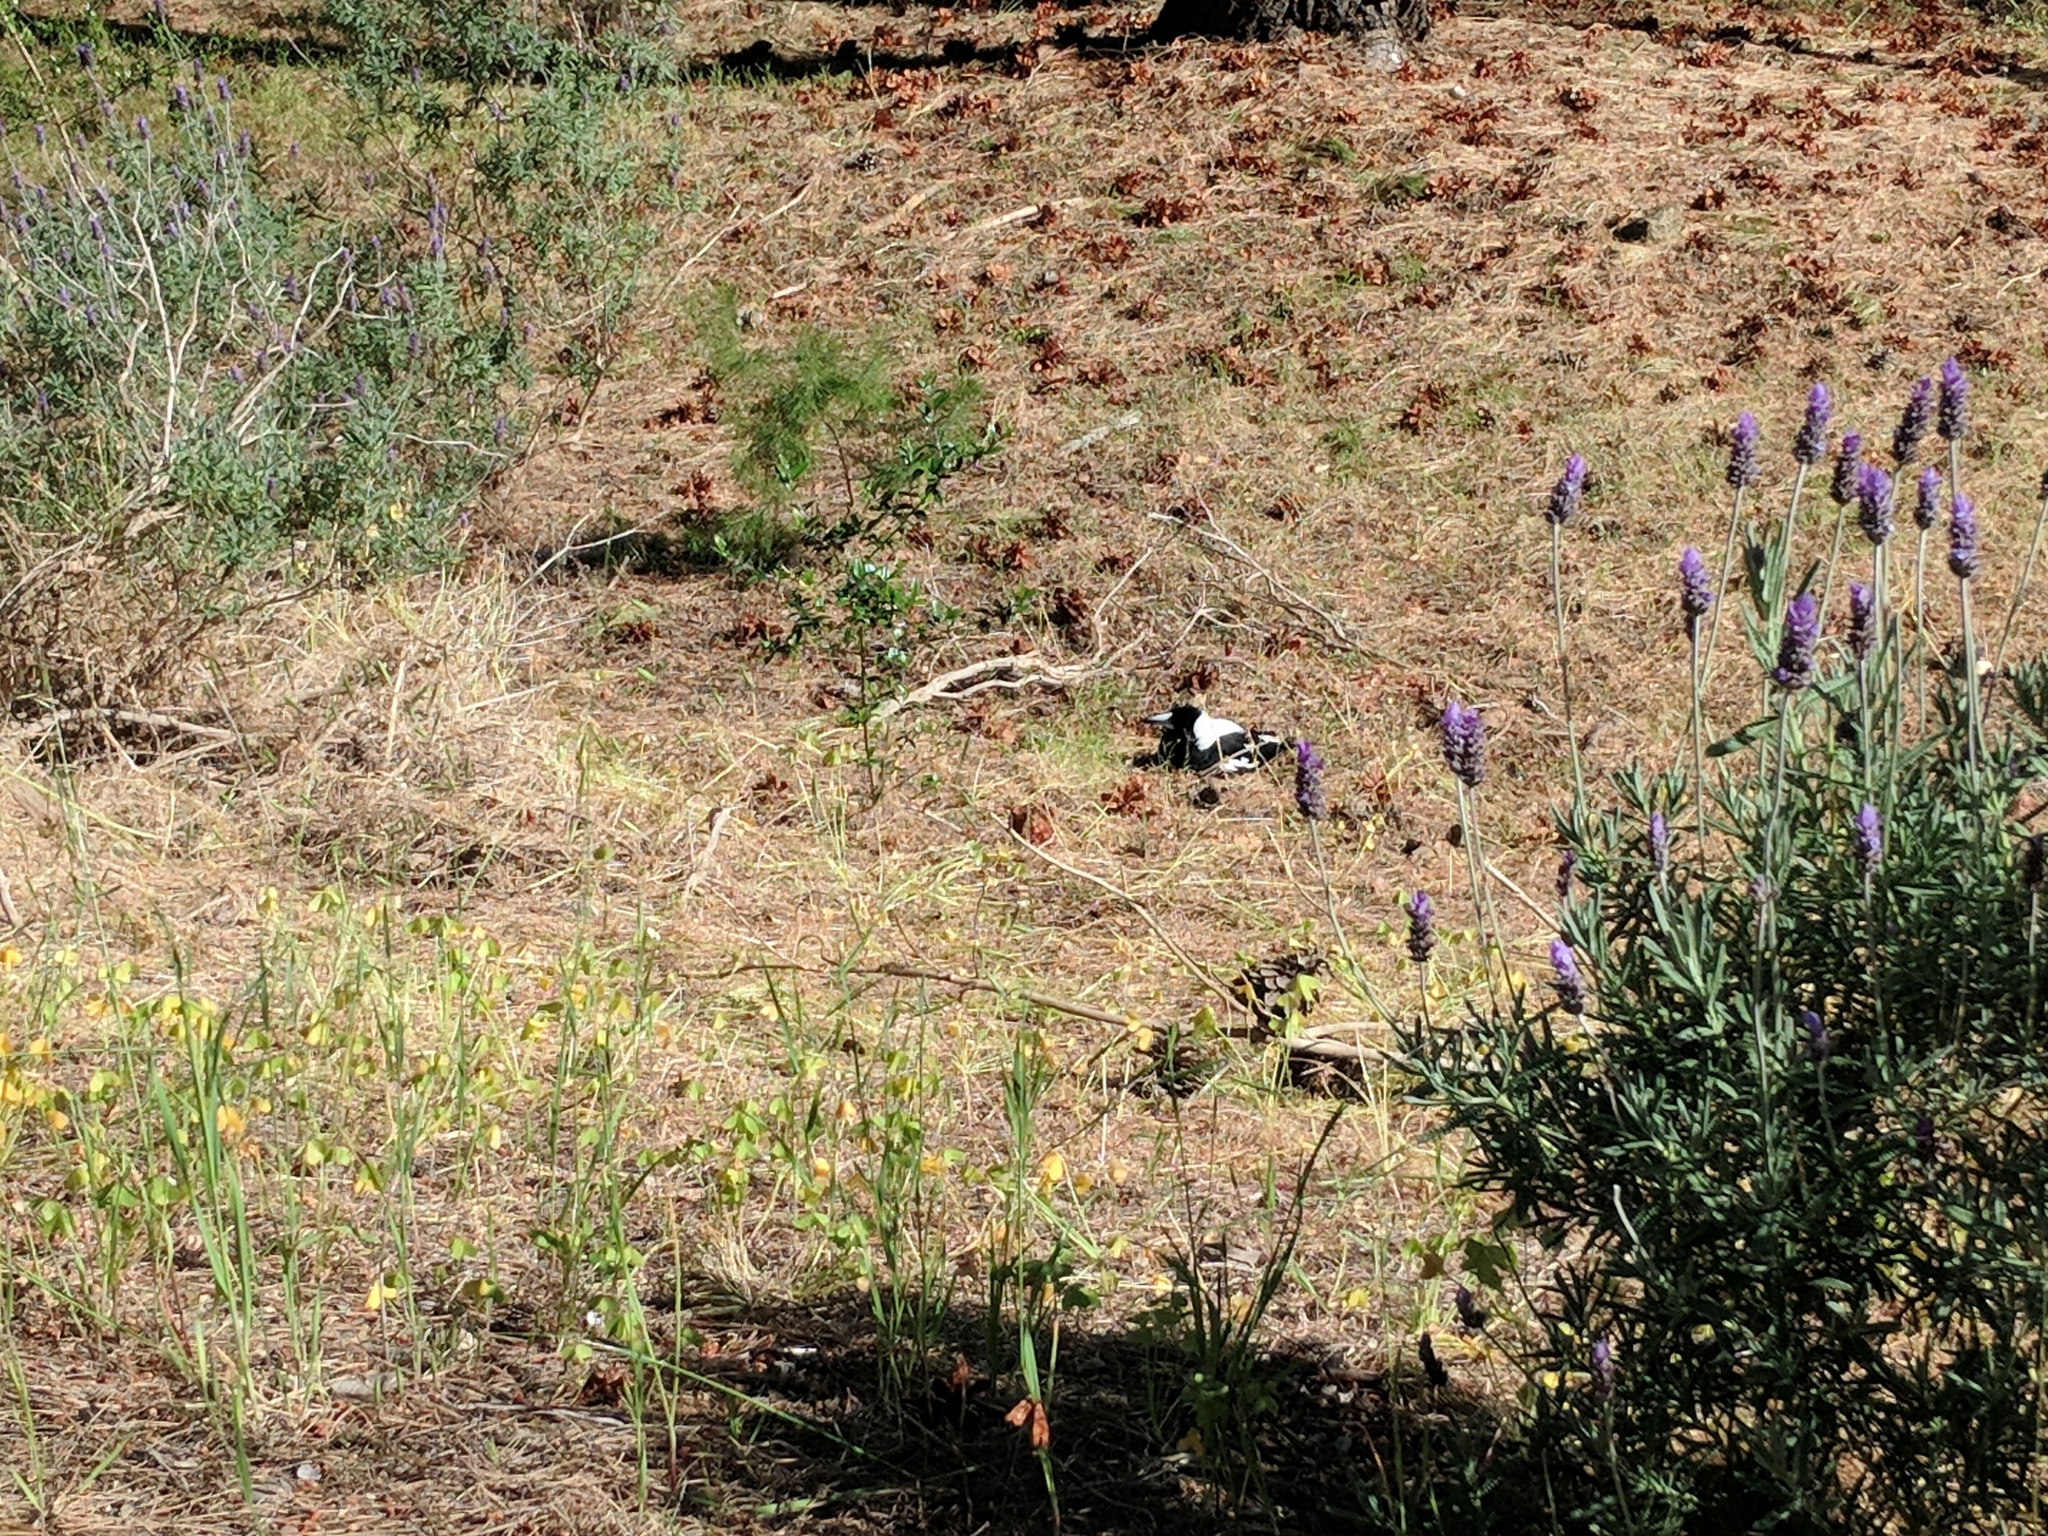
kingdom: Animalia
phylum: Chordata
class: Aves
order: Passeriformes
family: Cracticidae
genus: Gymnorhina
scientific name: Gymnorhina tibicen
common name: Australian magpie
